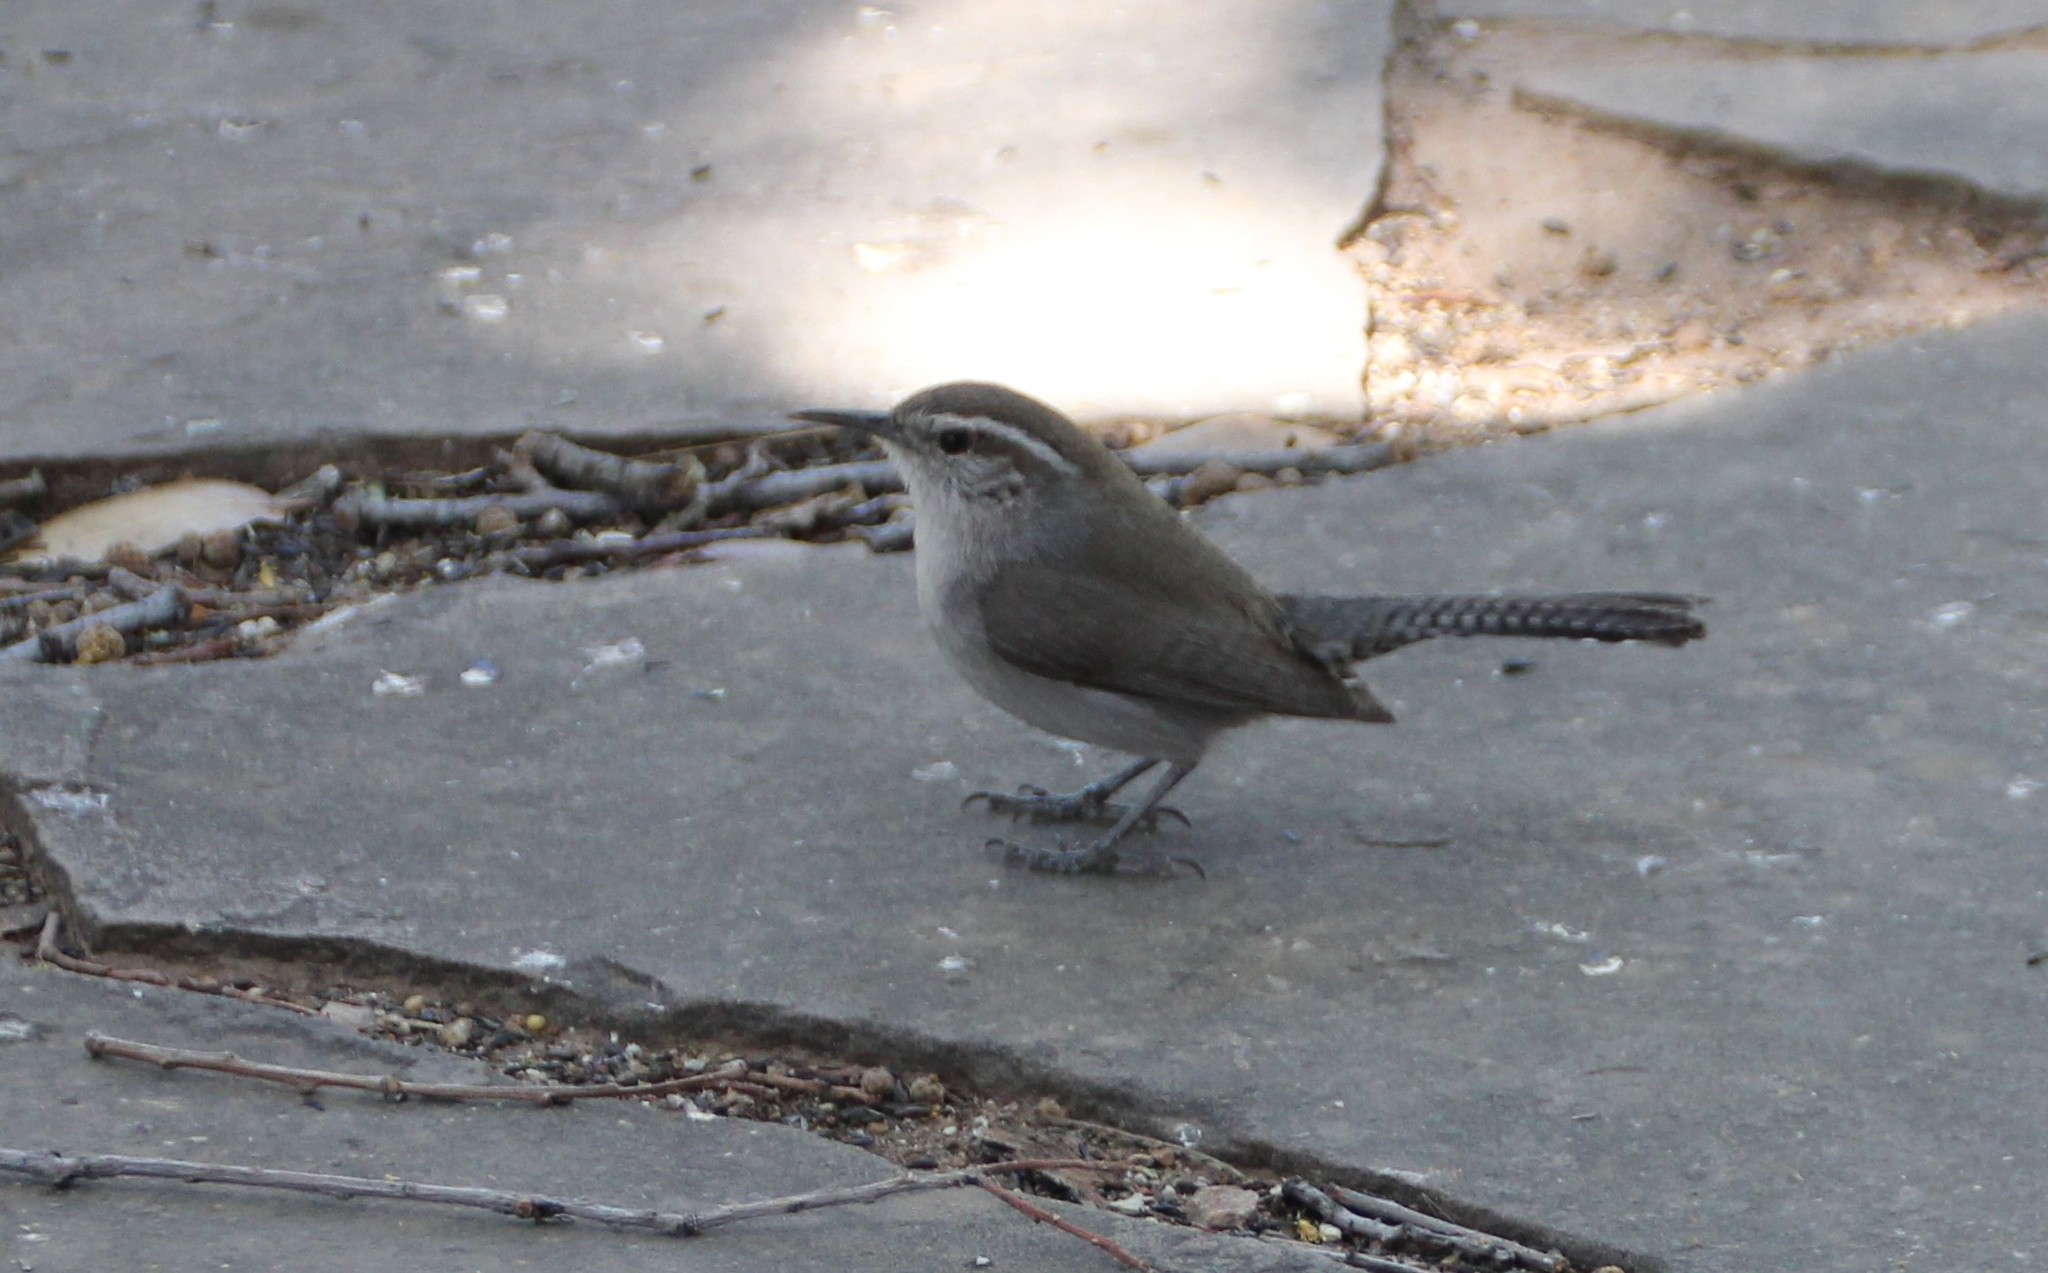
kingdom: Animalia
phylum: Chordata
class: Aves
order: Passeriformes
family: Troglodytidae
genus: Thryomanes
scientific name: Thryomanes bewickii
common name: Bewick's wren
